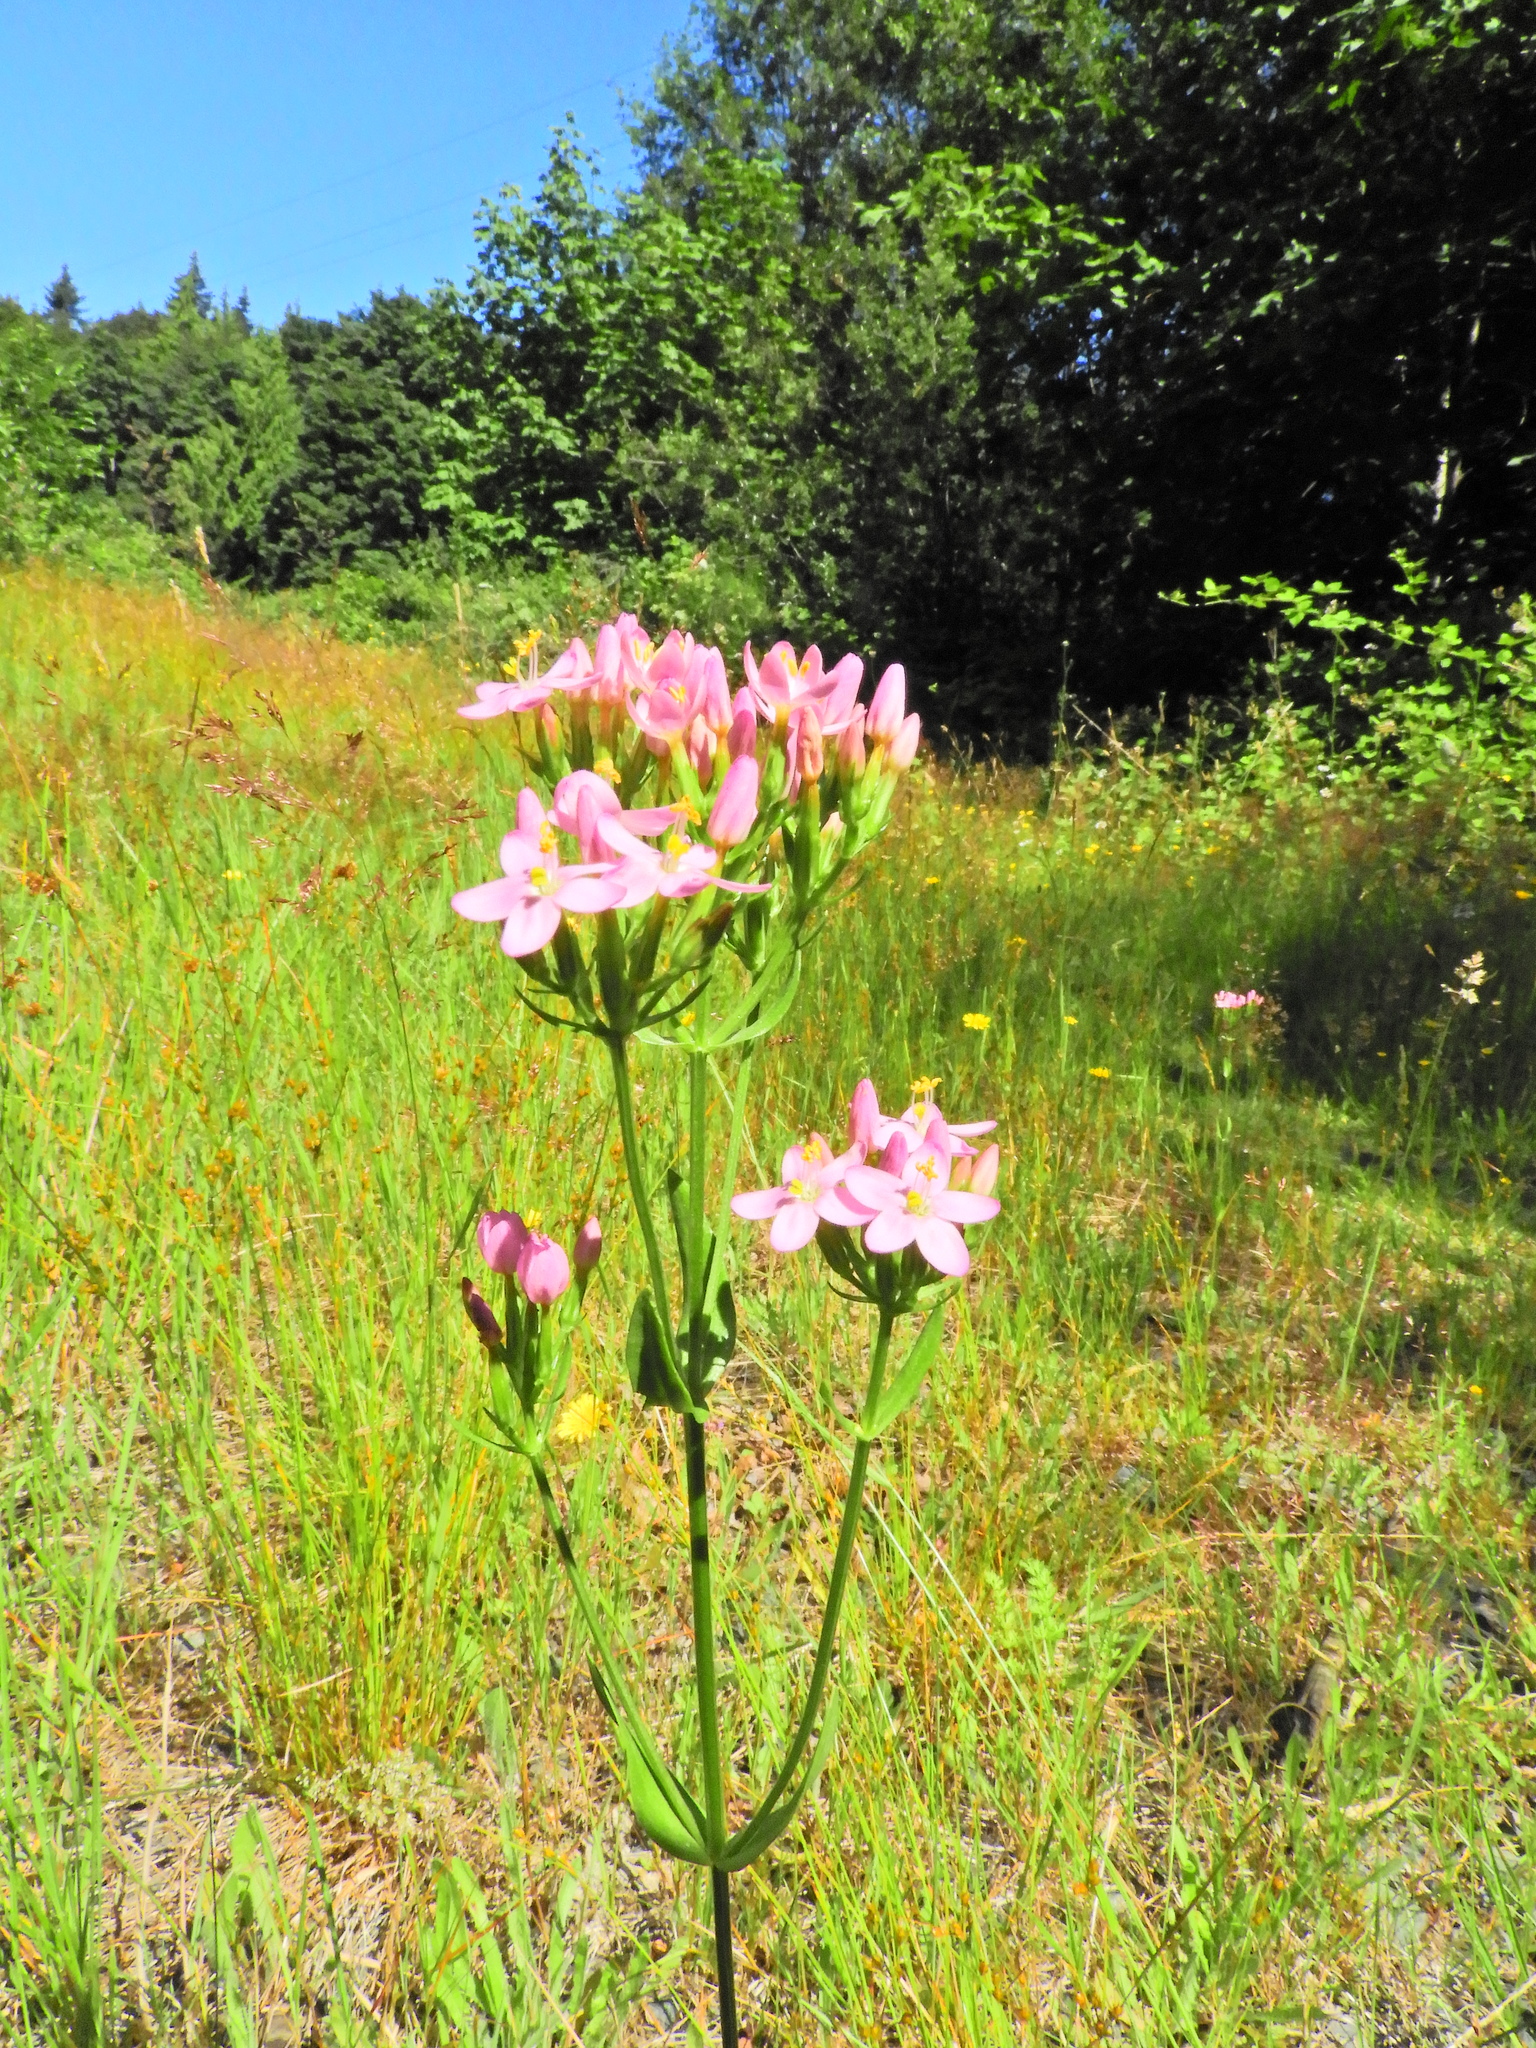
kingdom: Plantae
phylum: Tracheophyta
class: Magnoliopsida
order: Gentianales
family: Gentianaceae
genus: Centaurium
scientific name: Centaurium erythraea
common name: Common centaury
